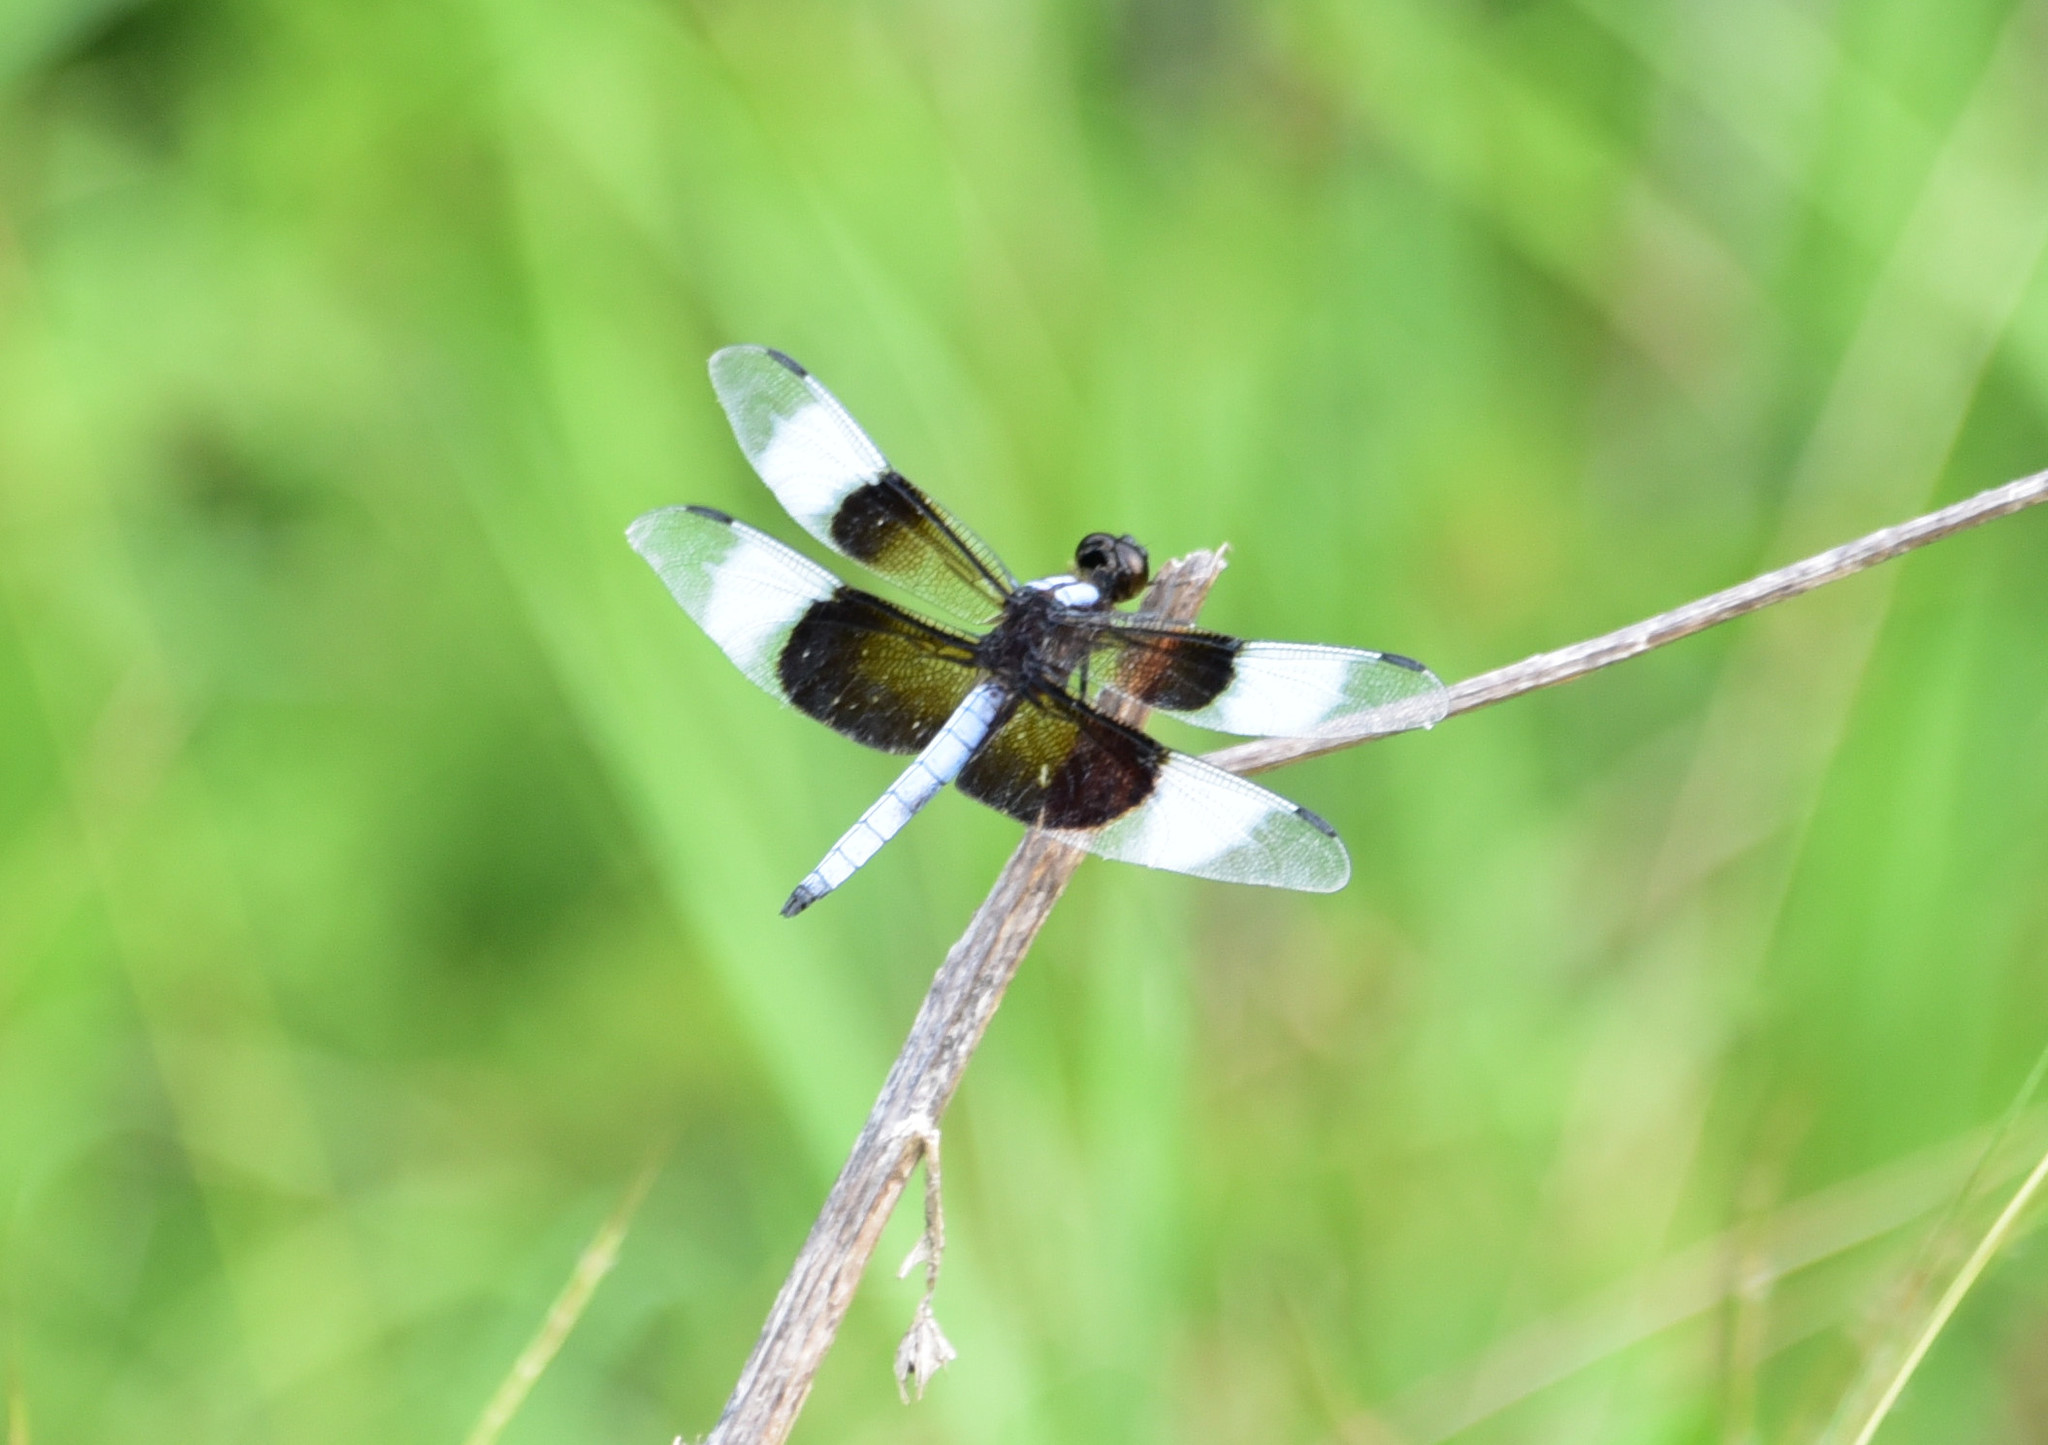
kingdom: Animalia
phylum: Arthropoda
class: Insecta
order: Odonata
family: Libellulidae
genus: Libellula
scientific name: Libellula luctuosa
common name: Widow skimmer
